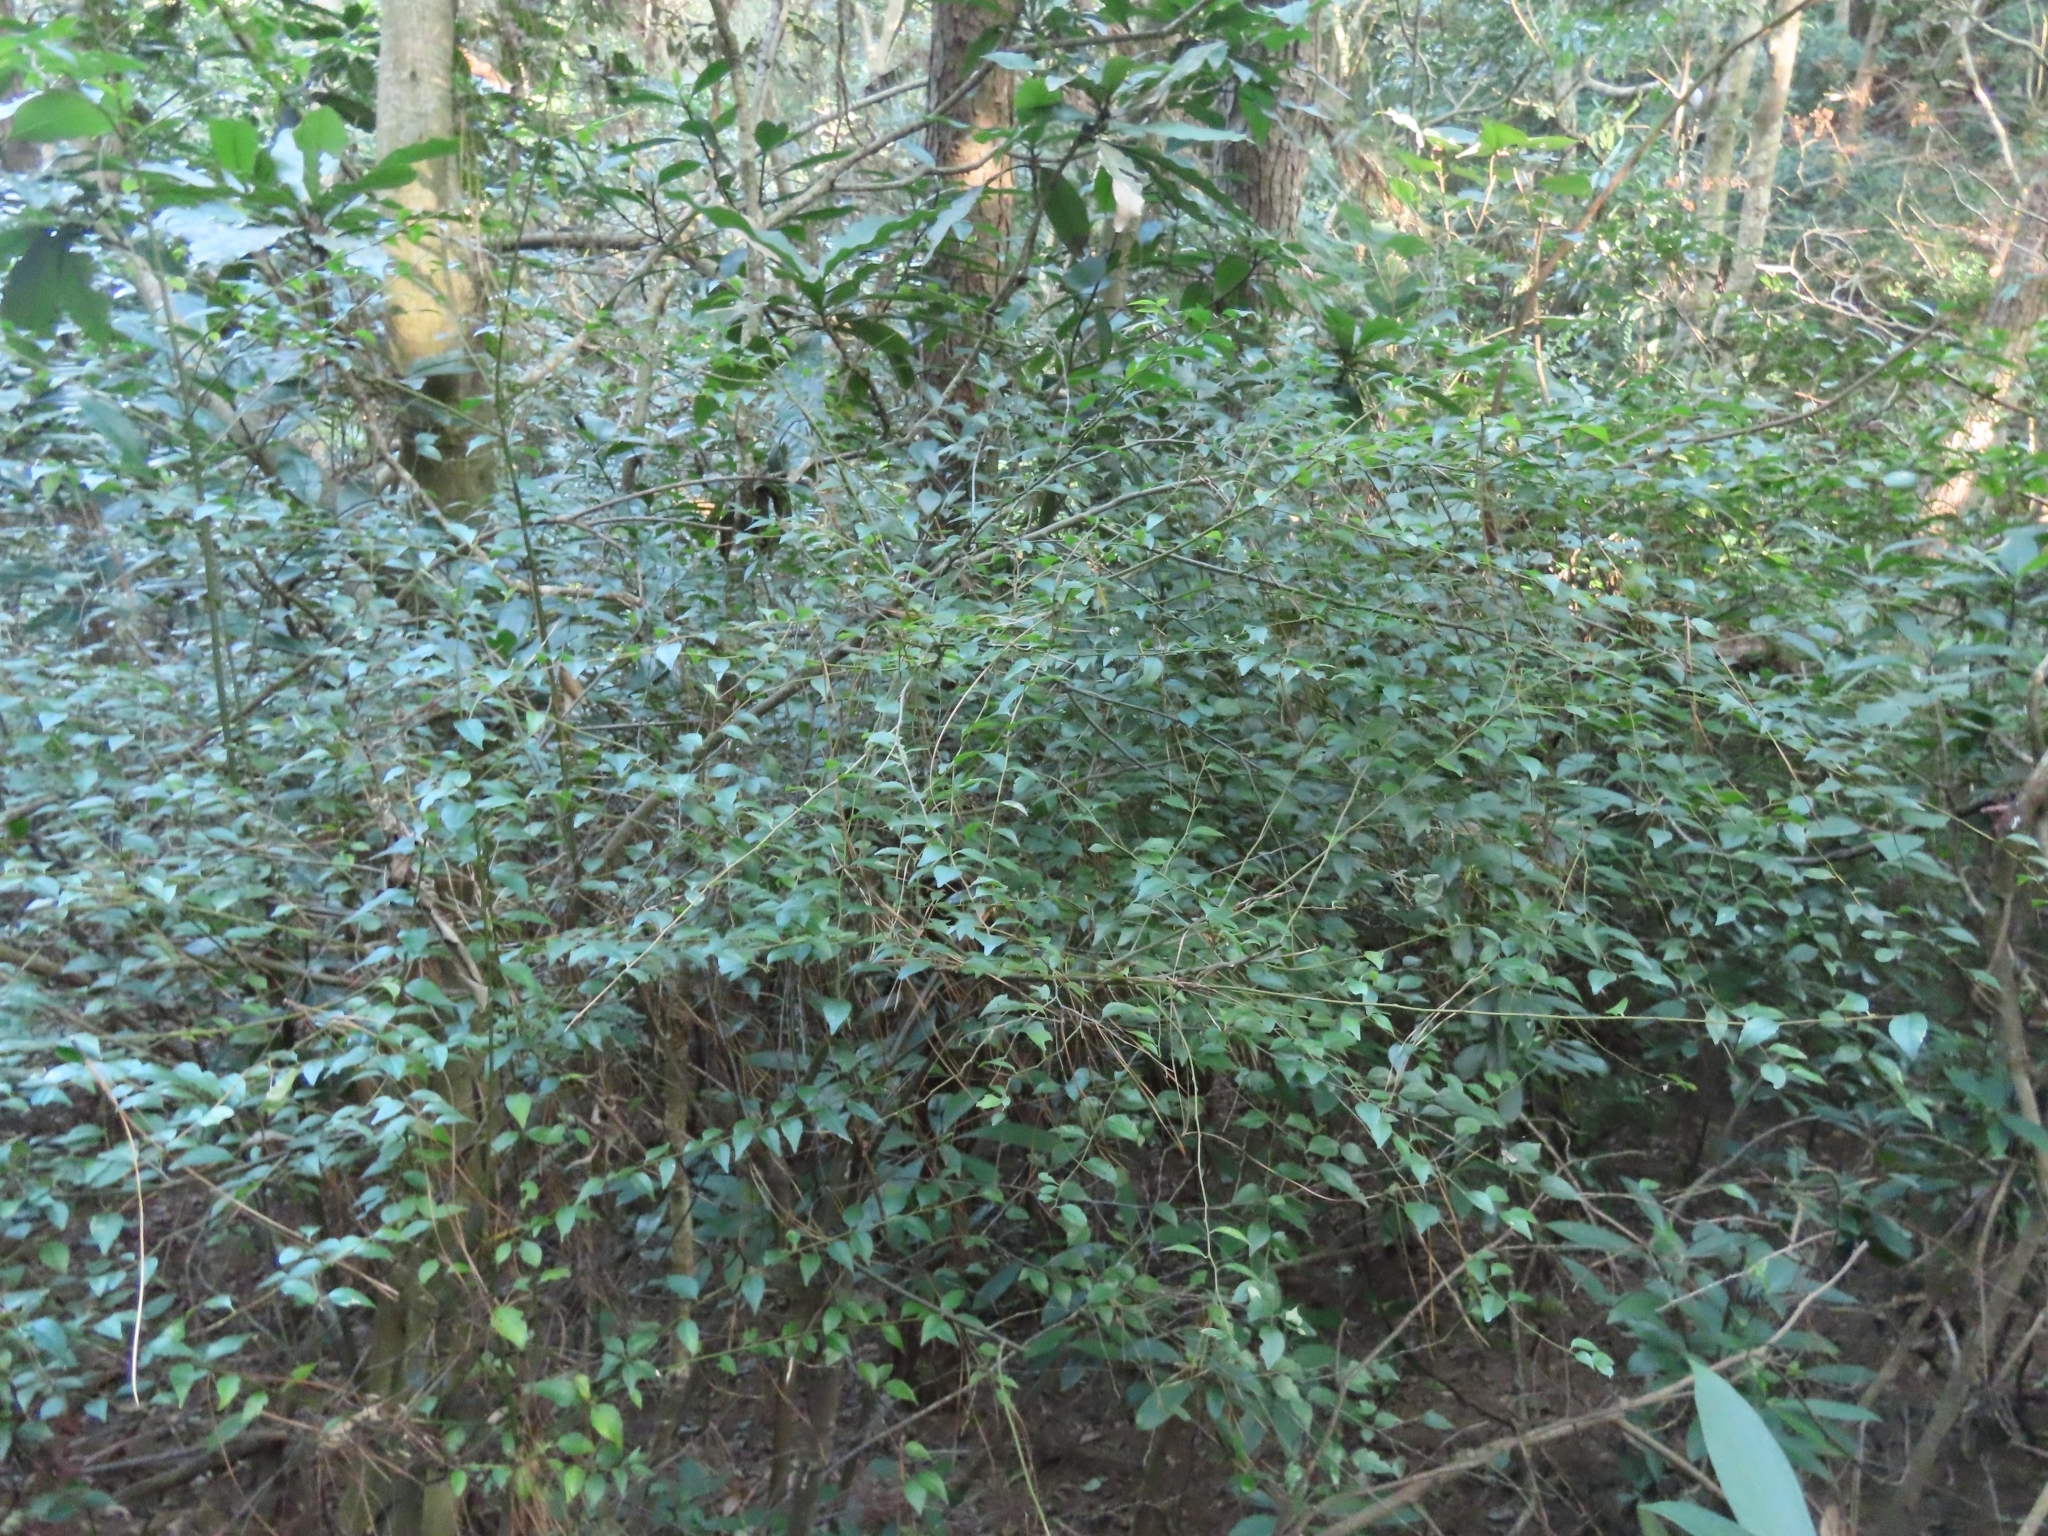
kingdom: Plantae
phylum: Tracheophyta
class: Magnoliopsida
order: Aquifoliales
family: Aquifoliaceae
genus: Ilex
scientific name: Ilex asprella
